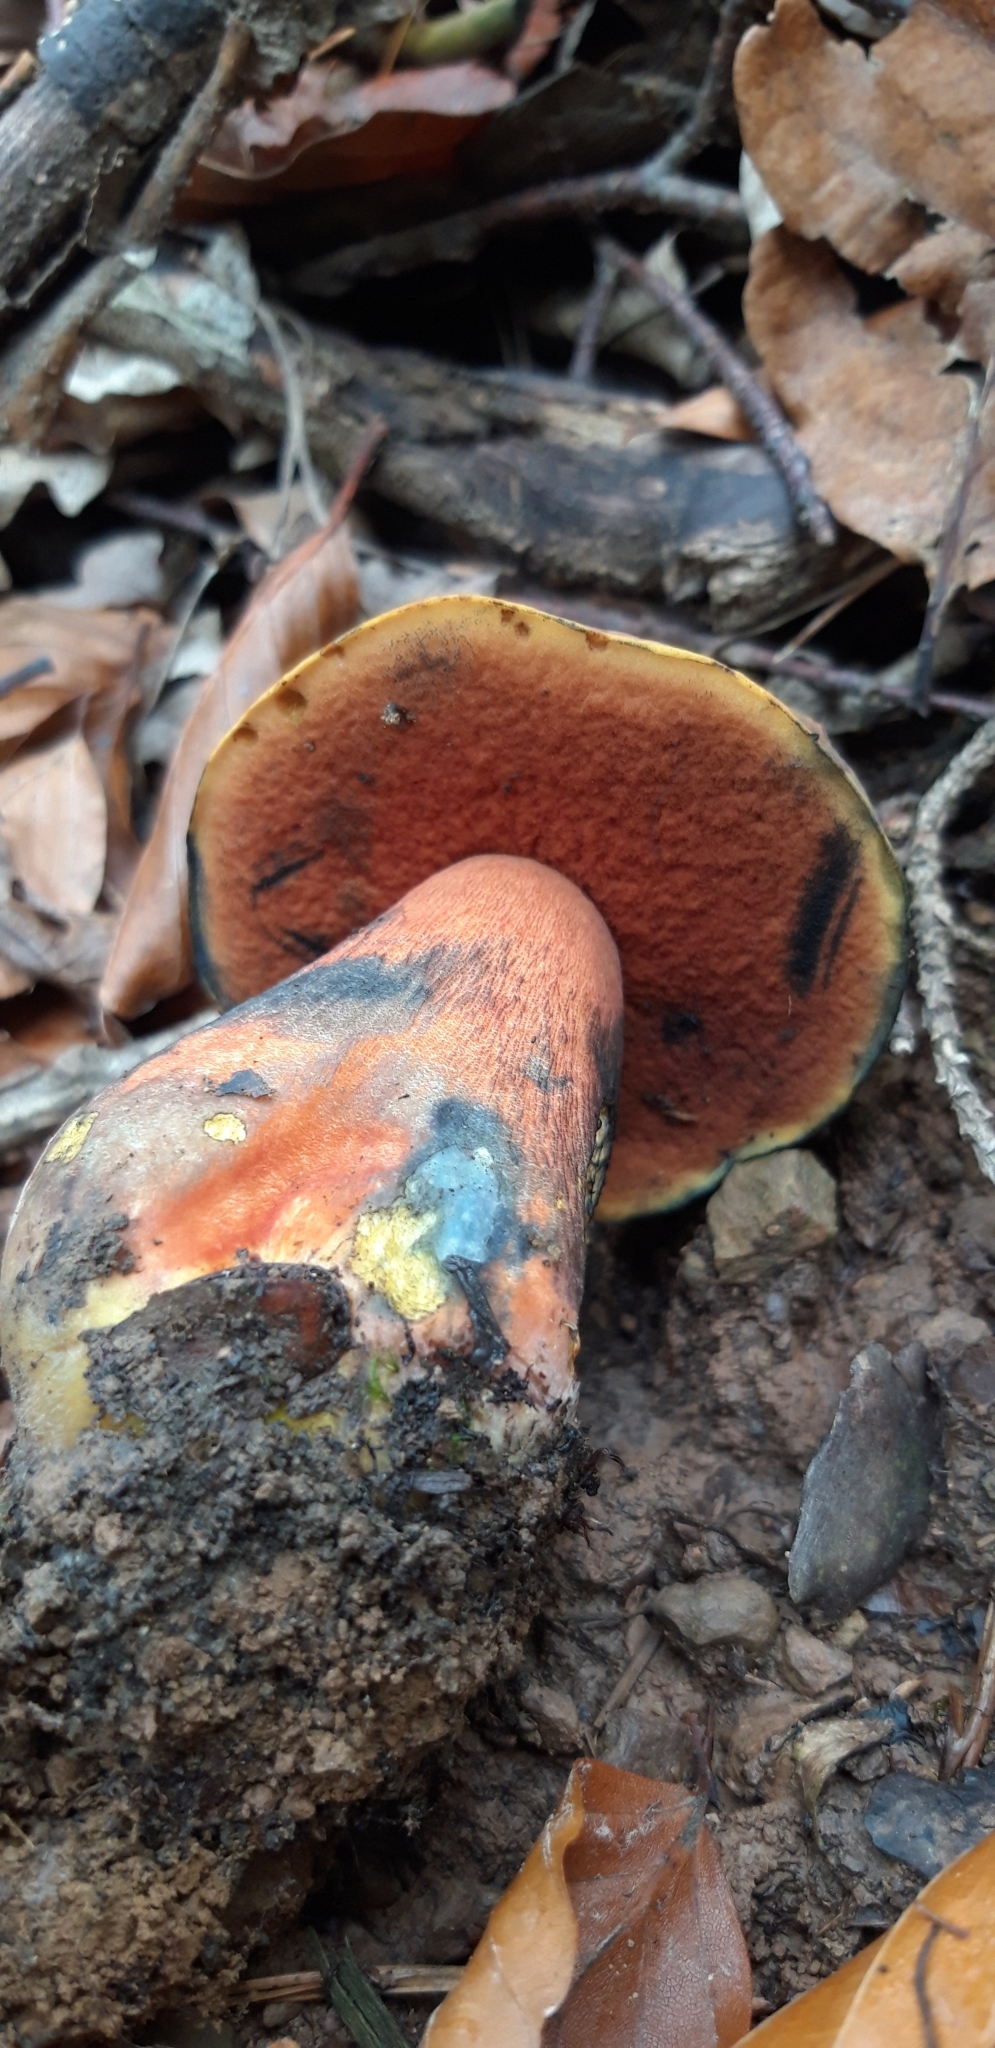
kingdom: Fungi
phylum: Basidiomycota
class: Agaricomycetes
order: Boletales
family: Boletaceae
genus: Neoboletus
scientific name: Neoboletus luridiformis
